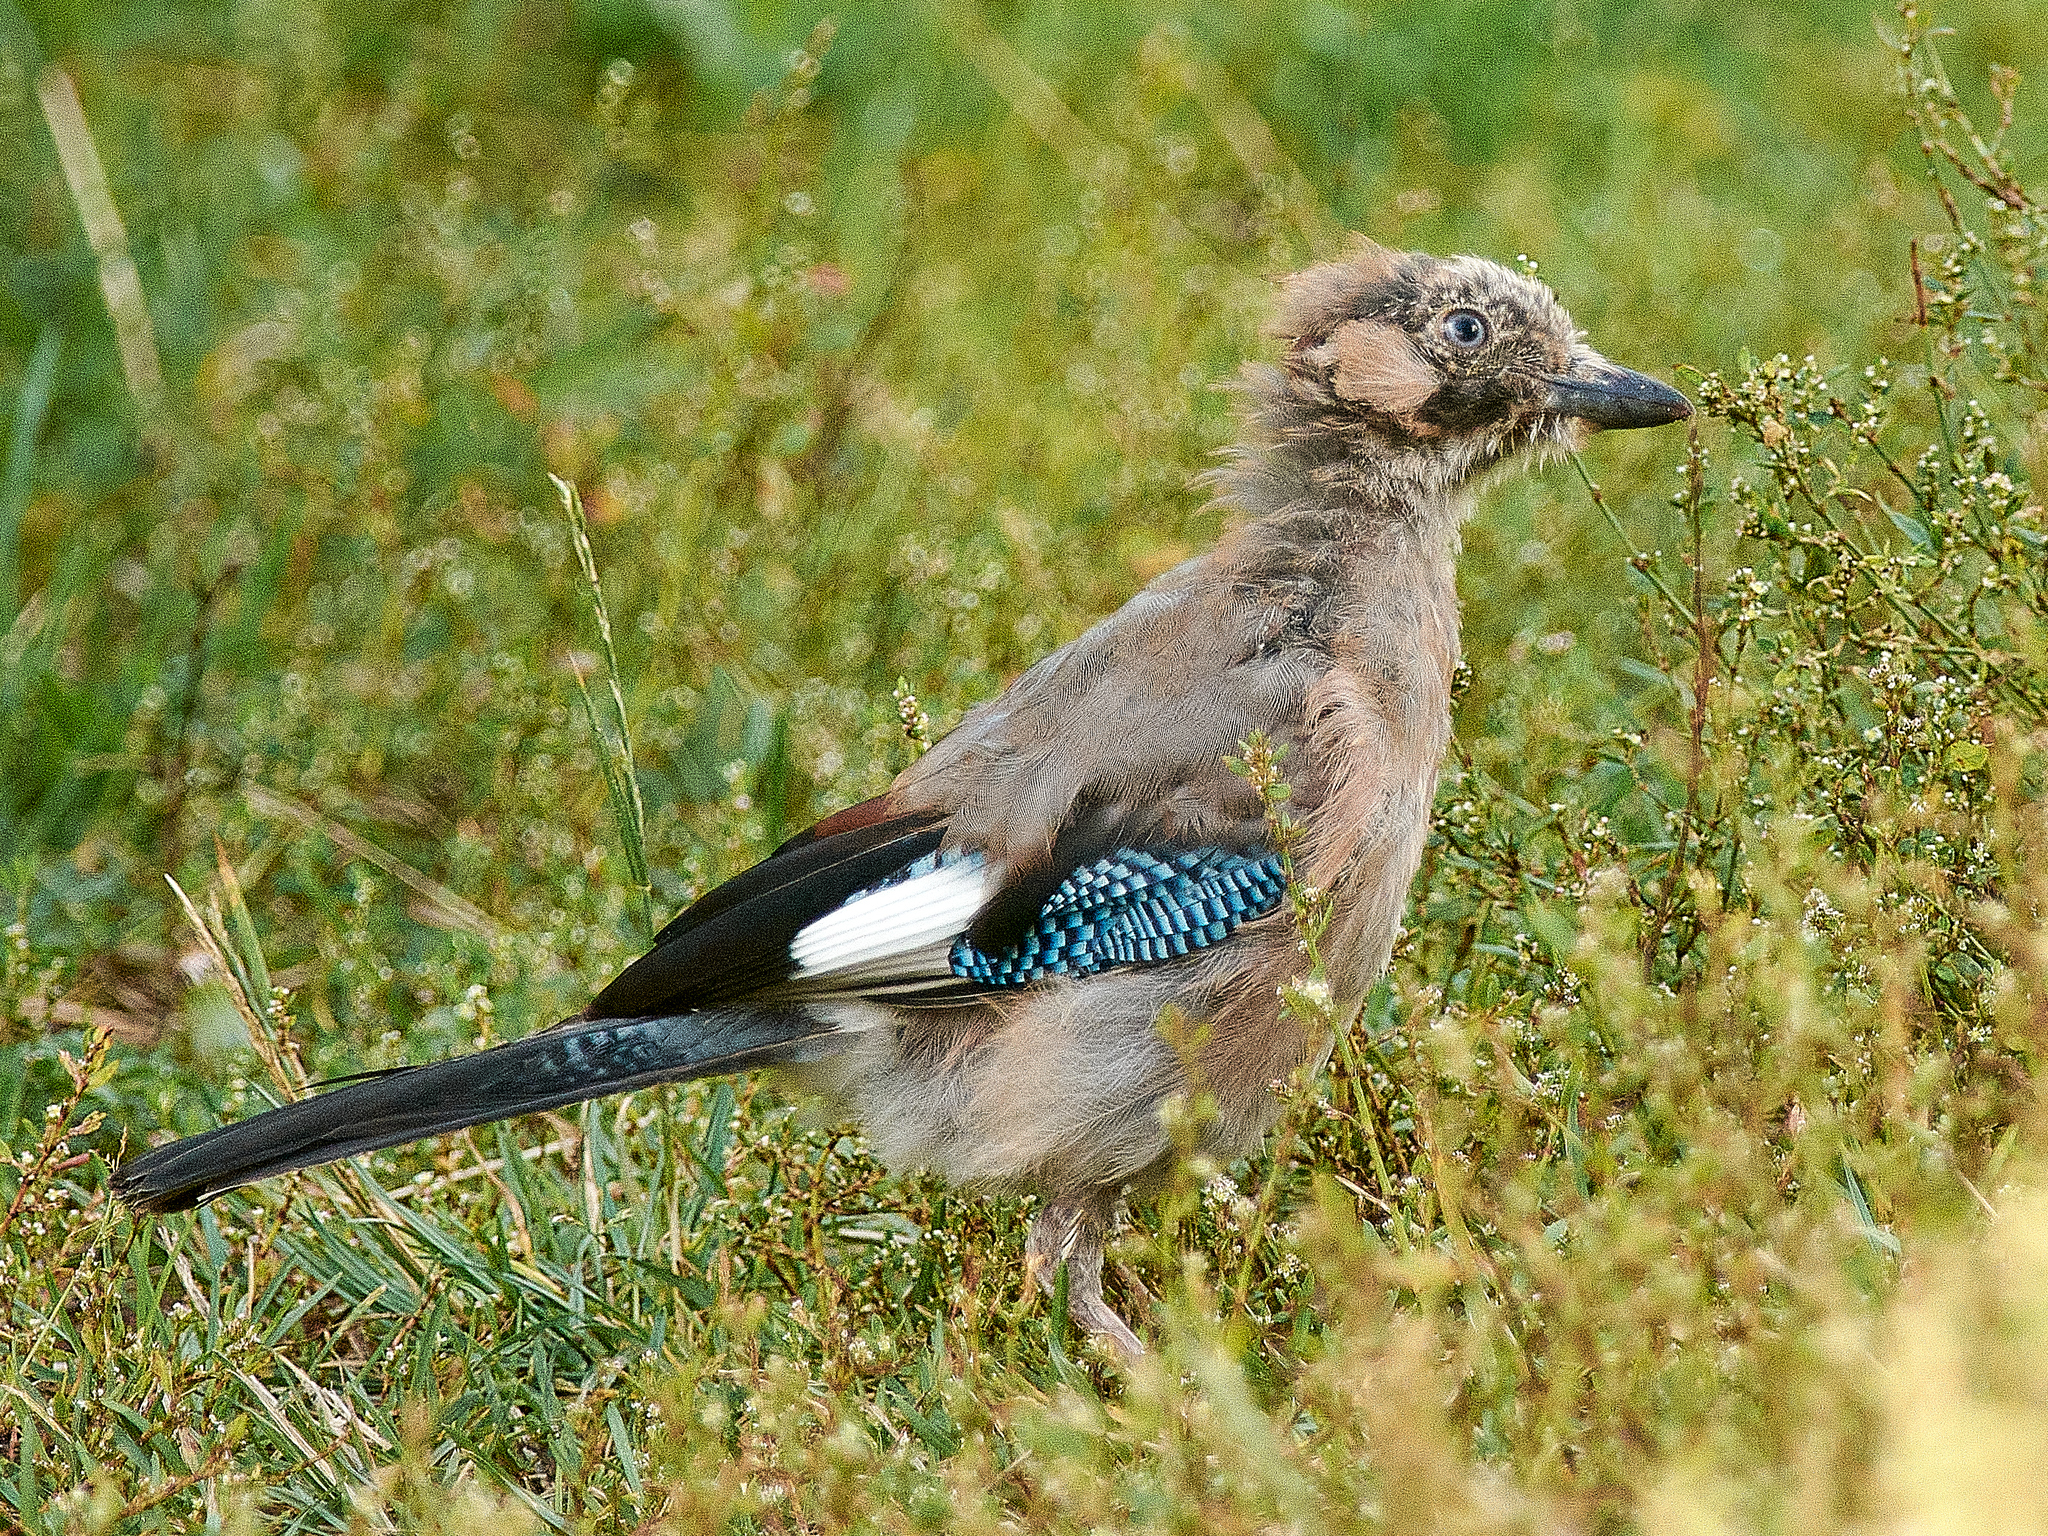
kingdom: Animalia
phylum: Chordata
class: Aves
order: Passeriformes
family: Corvidae
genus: Garrulus
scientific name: Garrulus glandarius
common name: Eurasian jay
